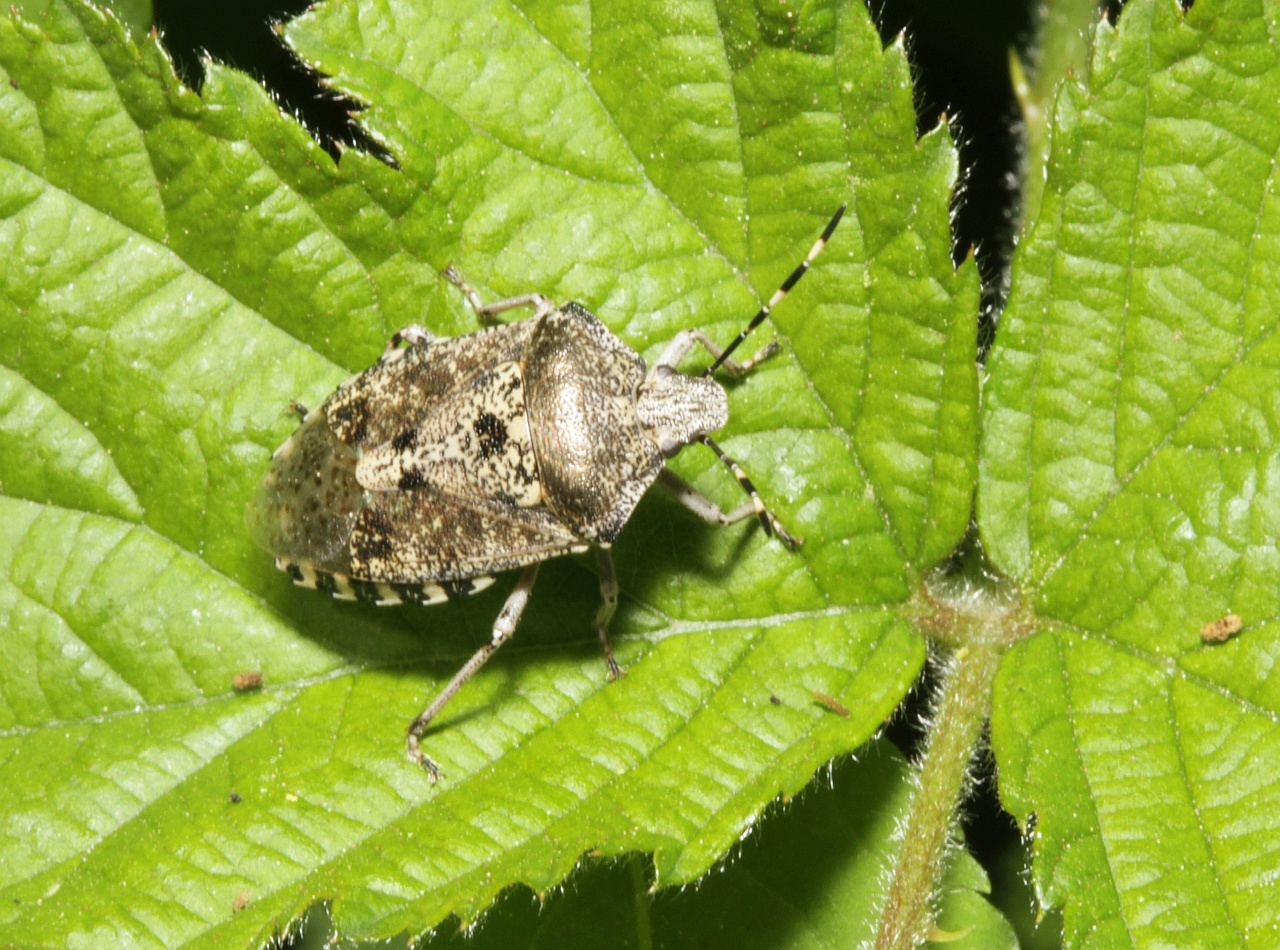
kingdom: Animalia
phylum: Arthropoda
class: Insecta
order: Hemiptera
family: Pentatomidae
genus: Rhaphigaster
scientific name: Rhaphigaster nebulosa
